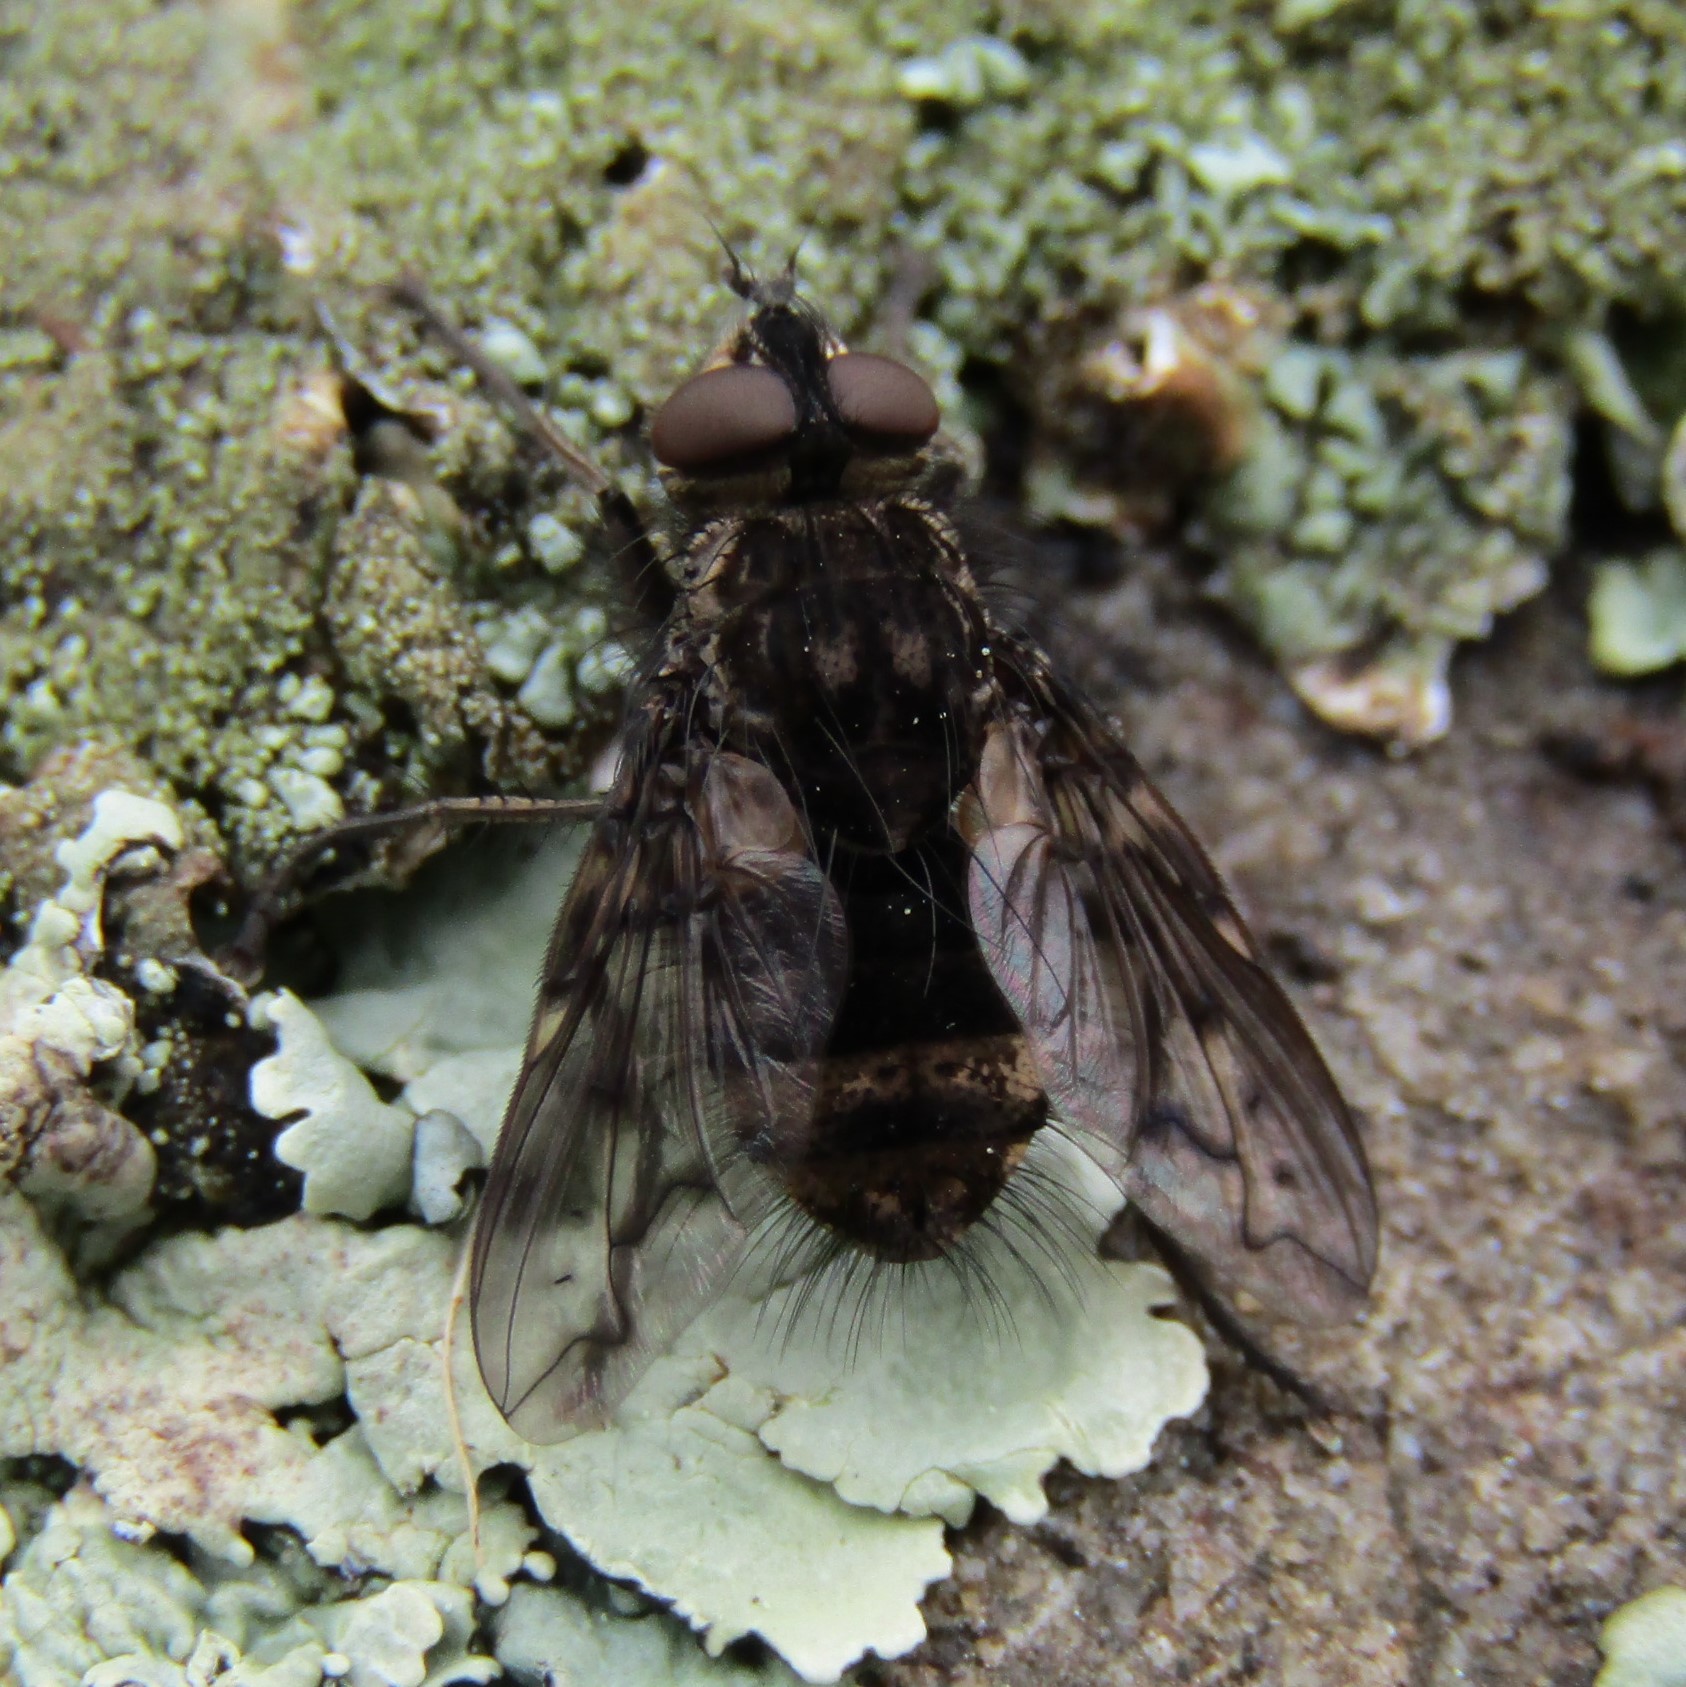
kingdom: Animalia
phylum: Arthropoda
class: Insecta
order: Diptera
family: Tachinidae
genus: Mallochomacquartia
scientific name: Mallochomacquartia vexata
